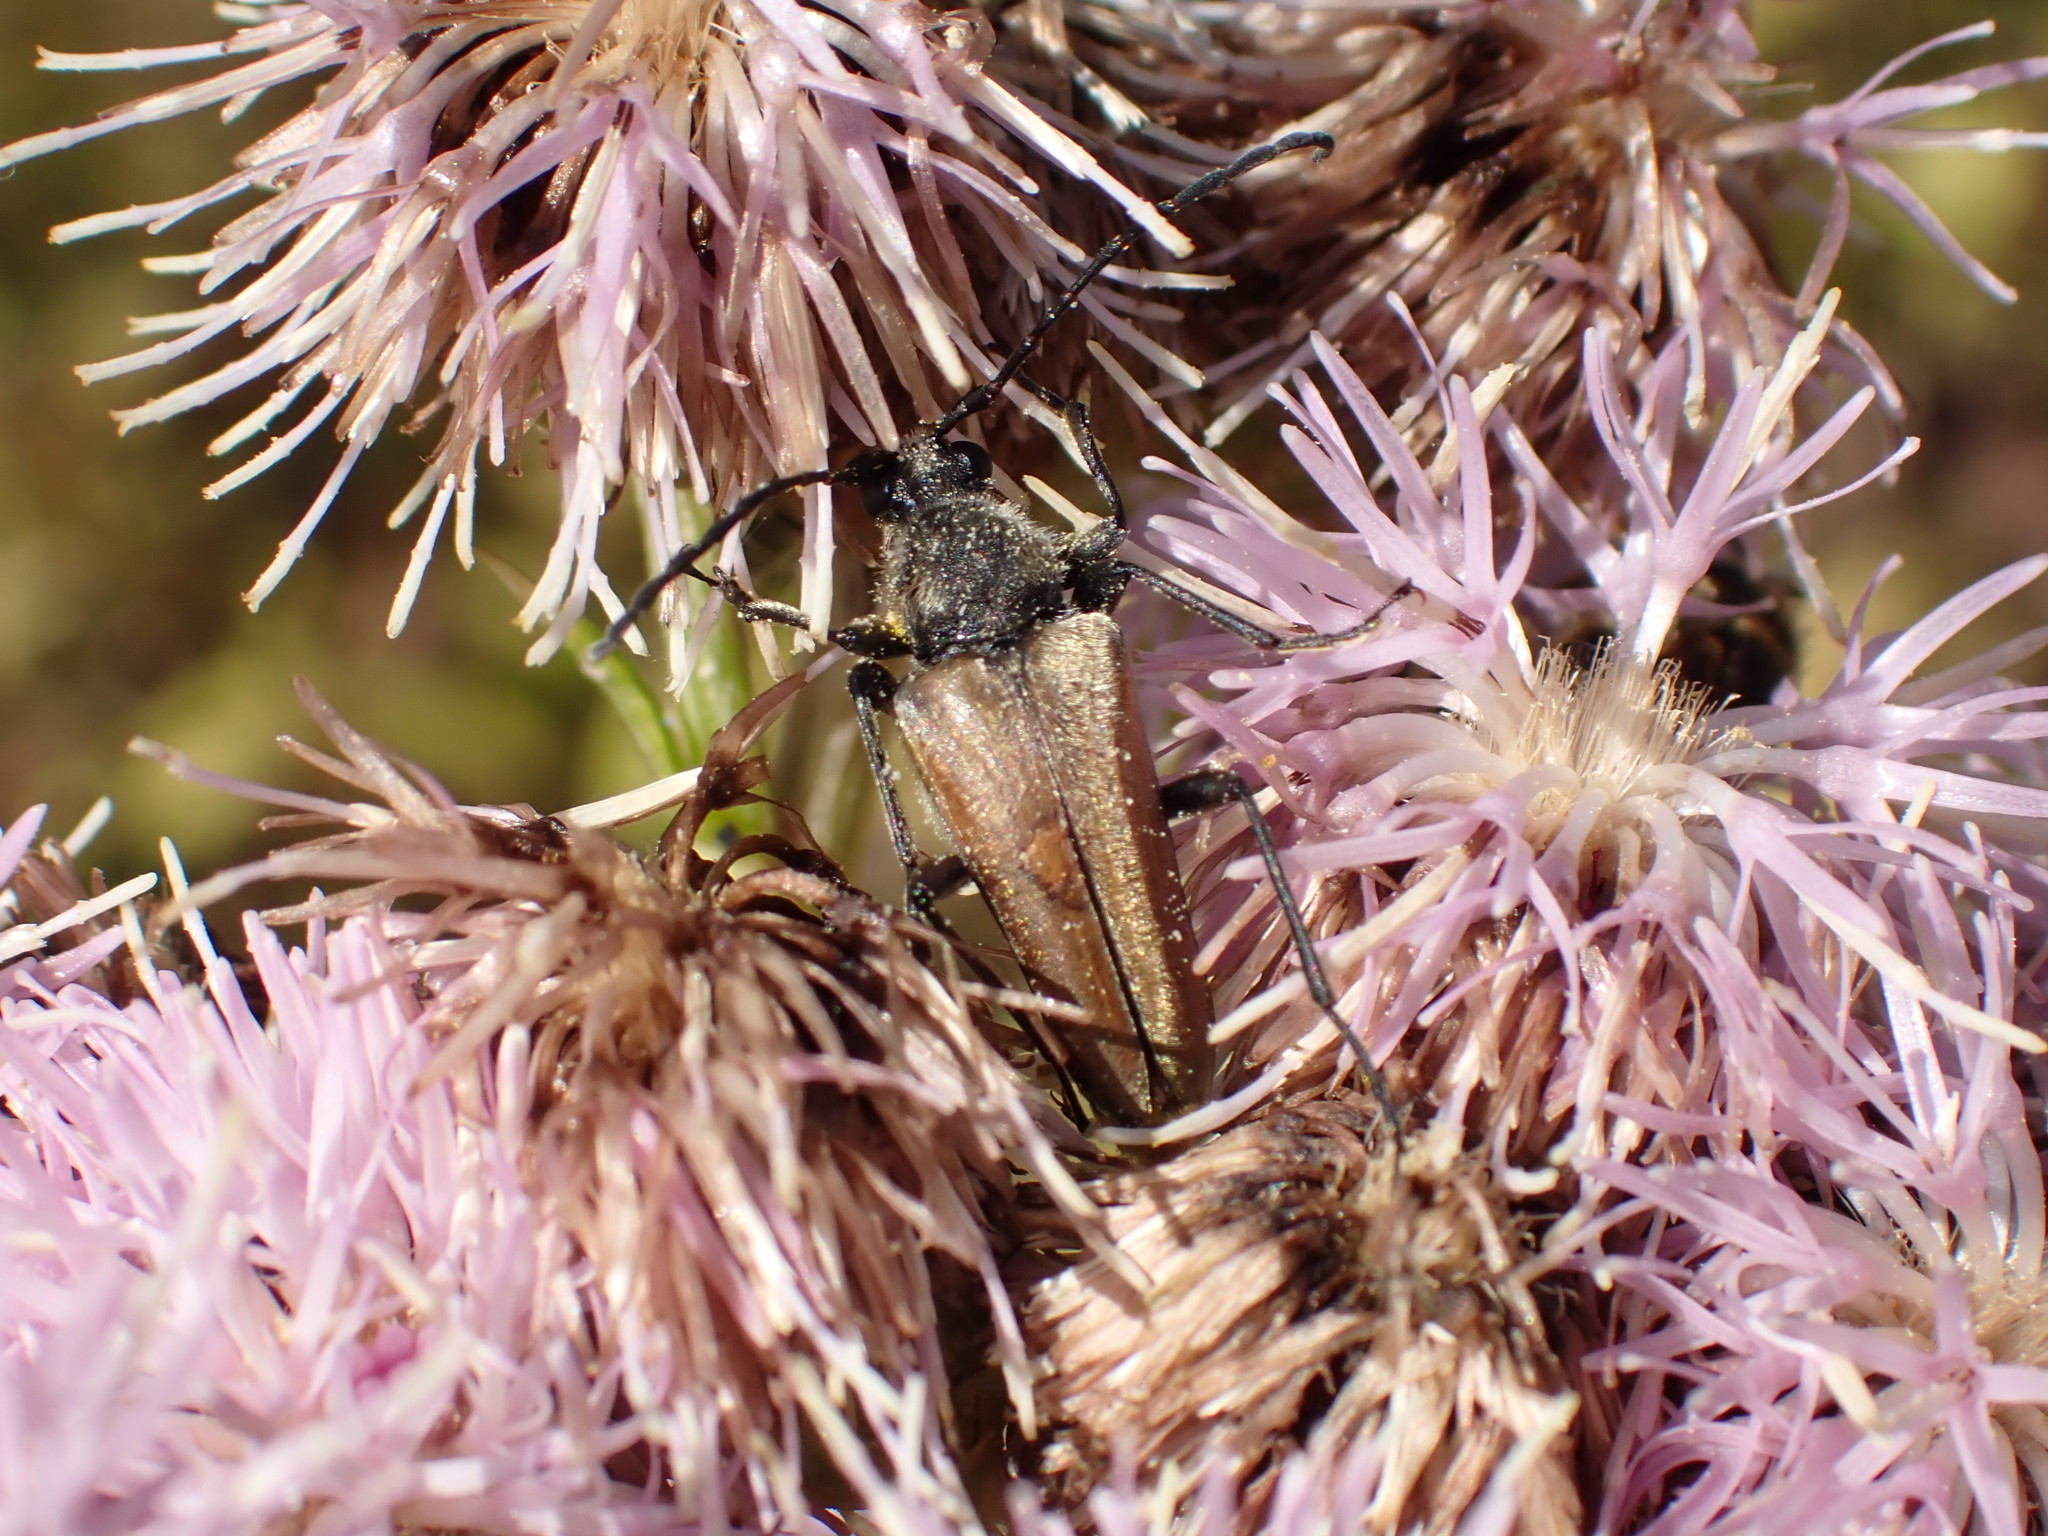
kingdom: Animalia
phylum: Arthropoda
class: Insecta
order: Coleoptera
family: Cerambycidae
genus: Cosmosalia
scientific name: Cosmosalia chrysocoma
